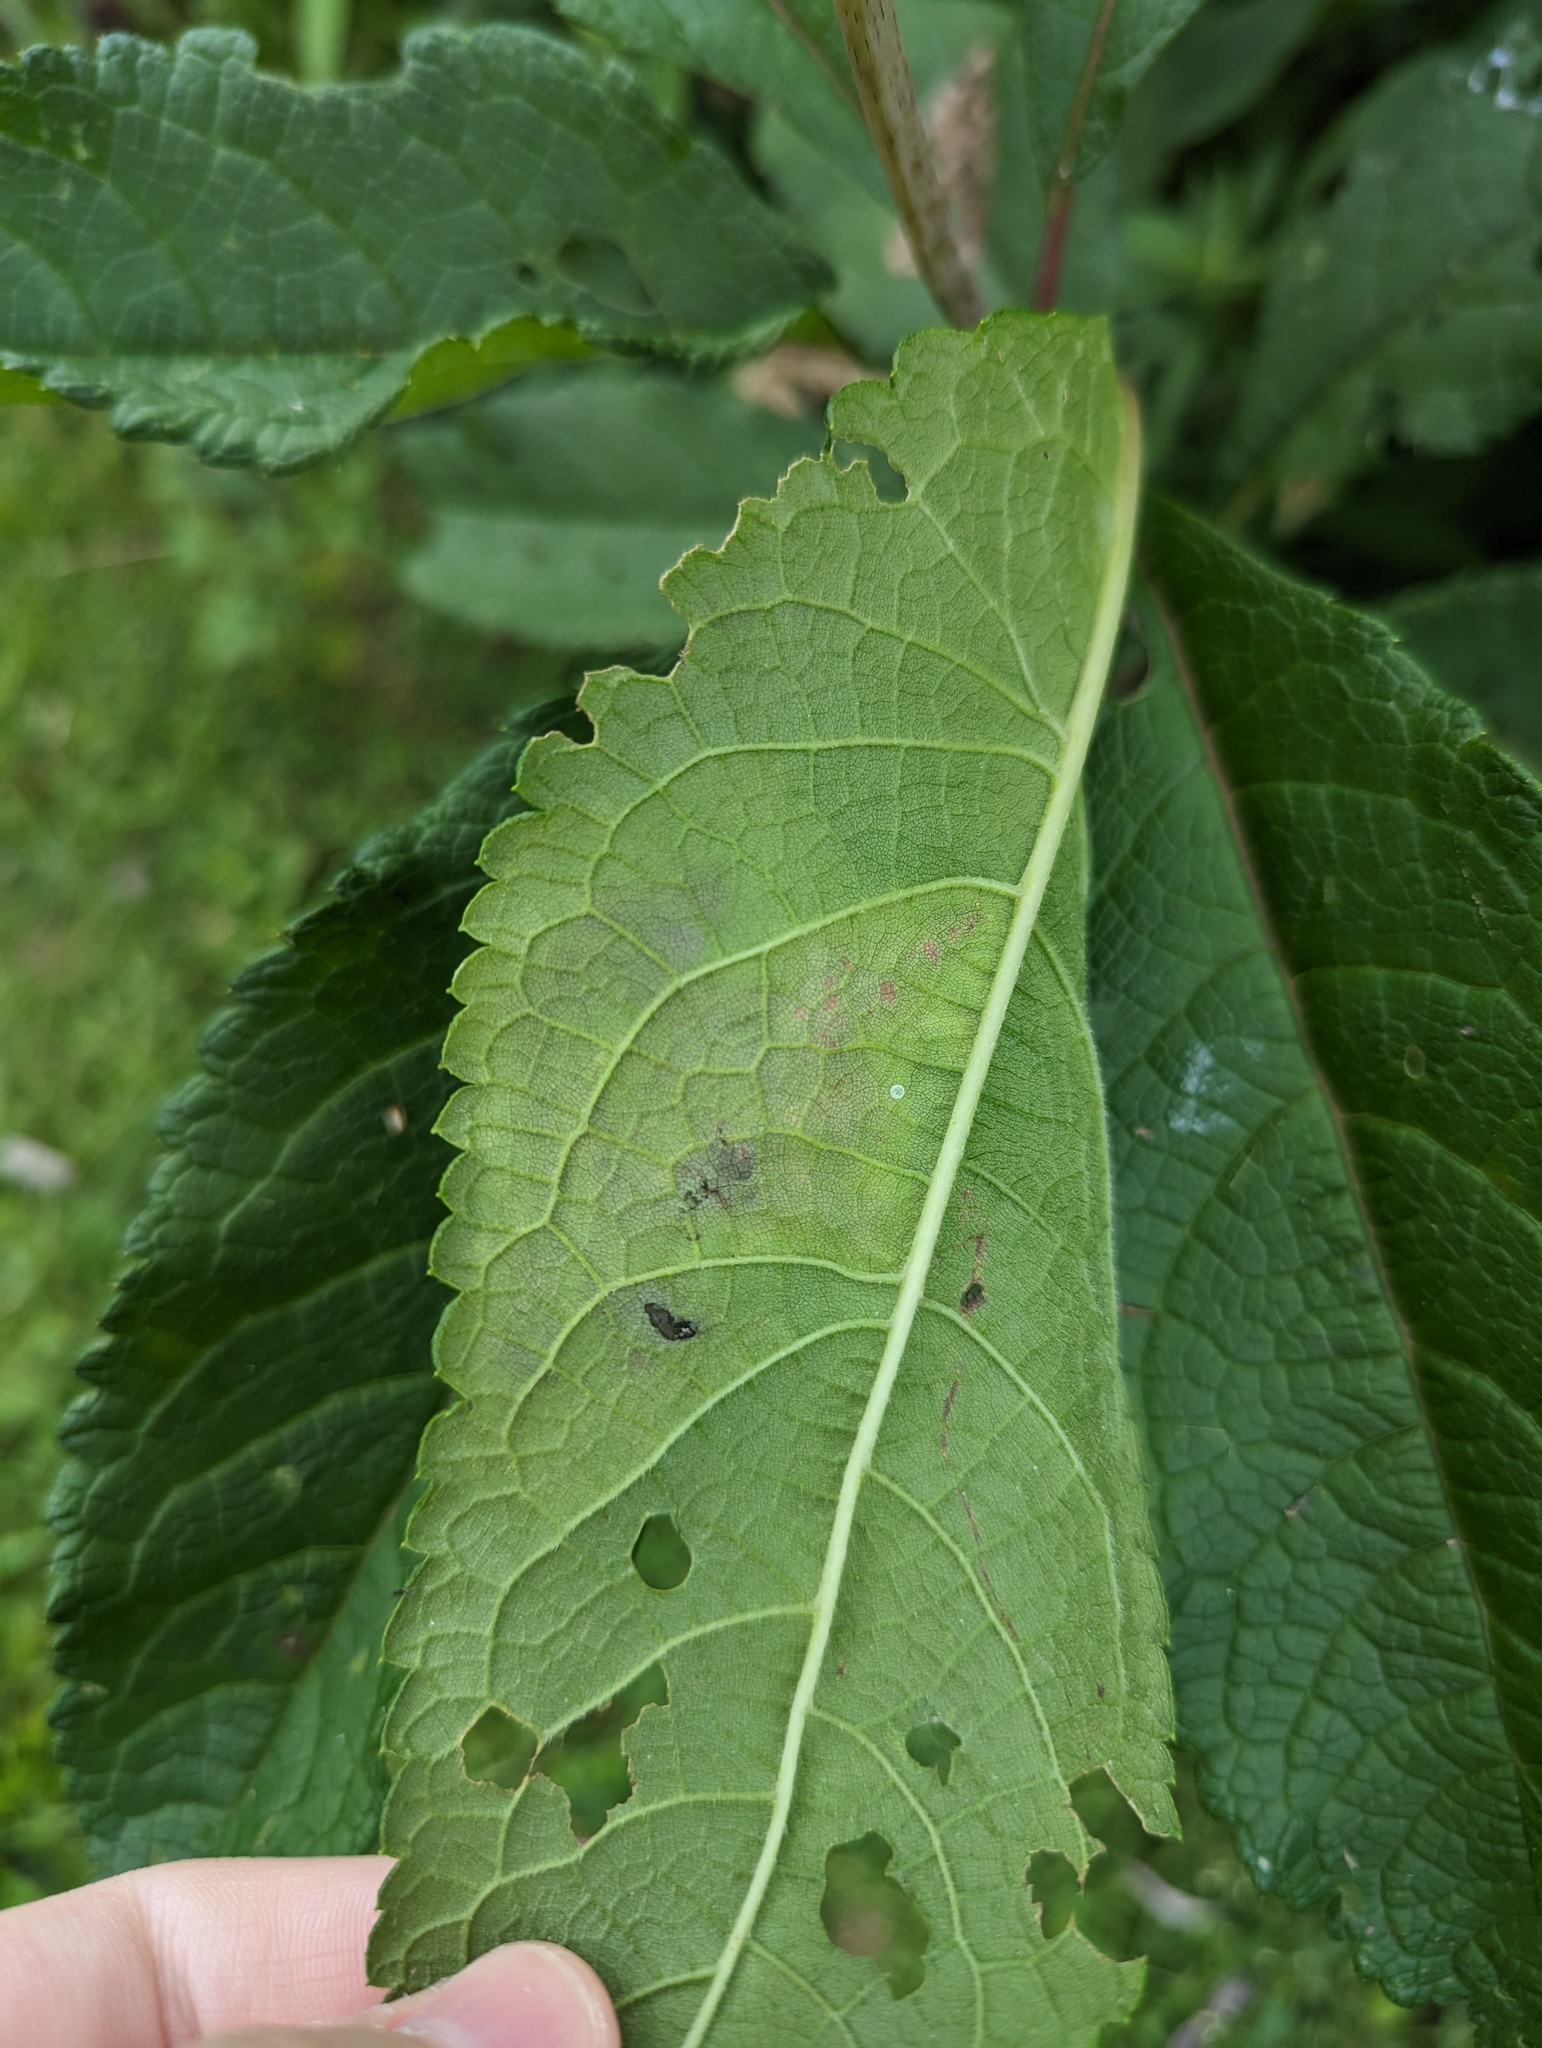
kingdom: Animalia
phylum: Arthropoda
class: Insecta
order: Diptera
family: Agromyzidae
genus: Calycomyza
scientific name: Calycomyza flavinotum
